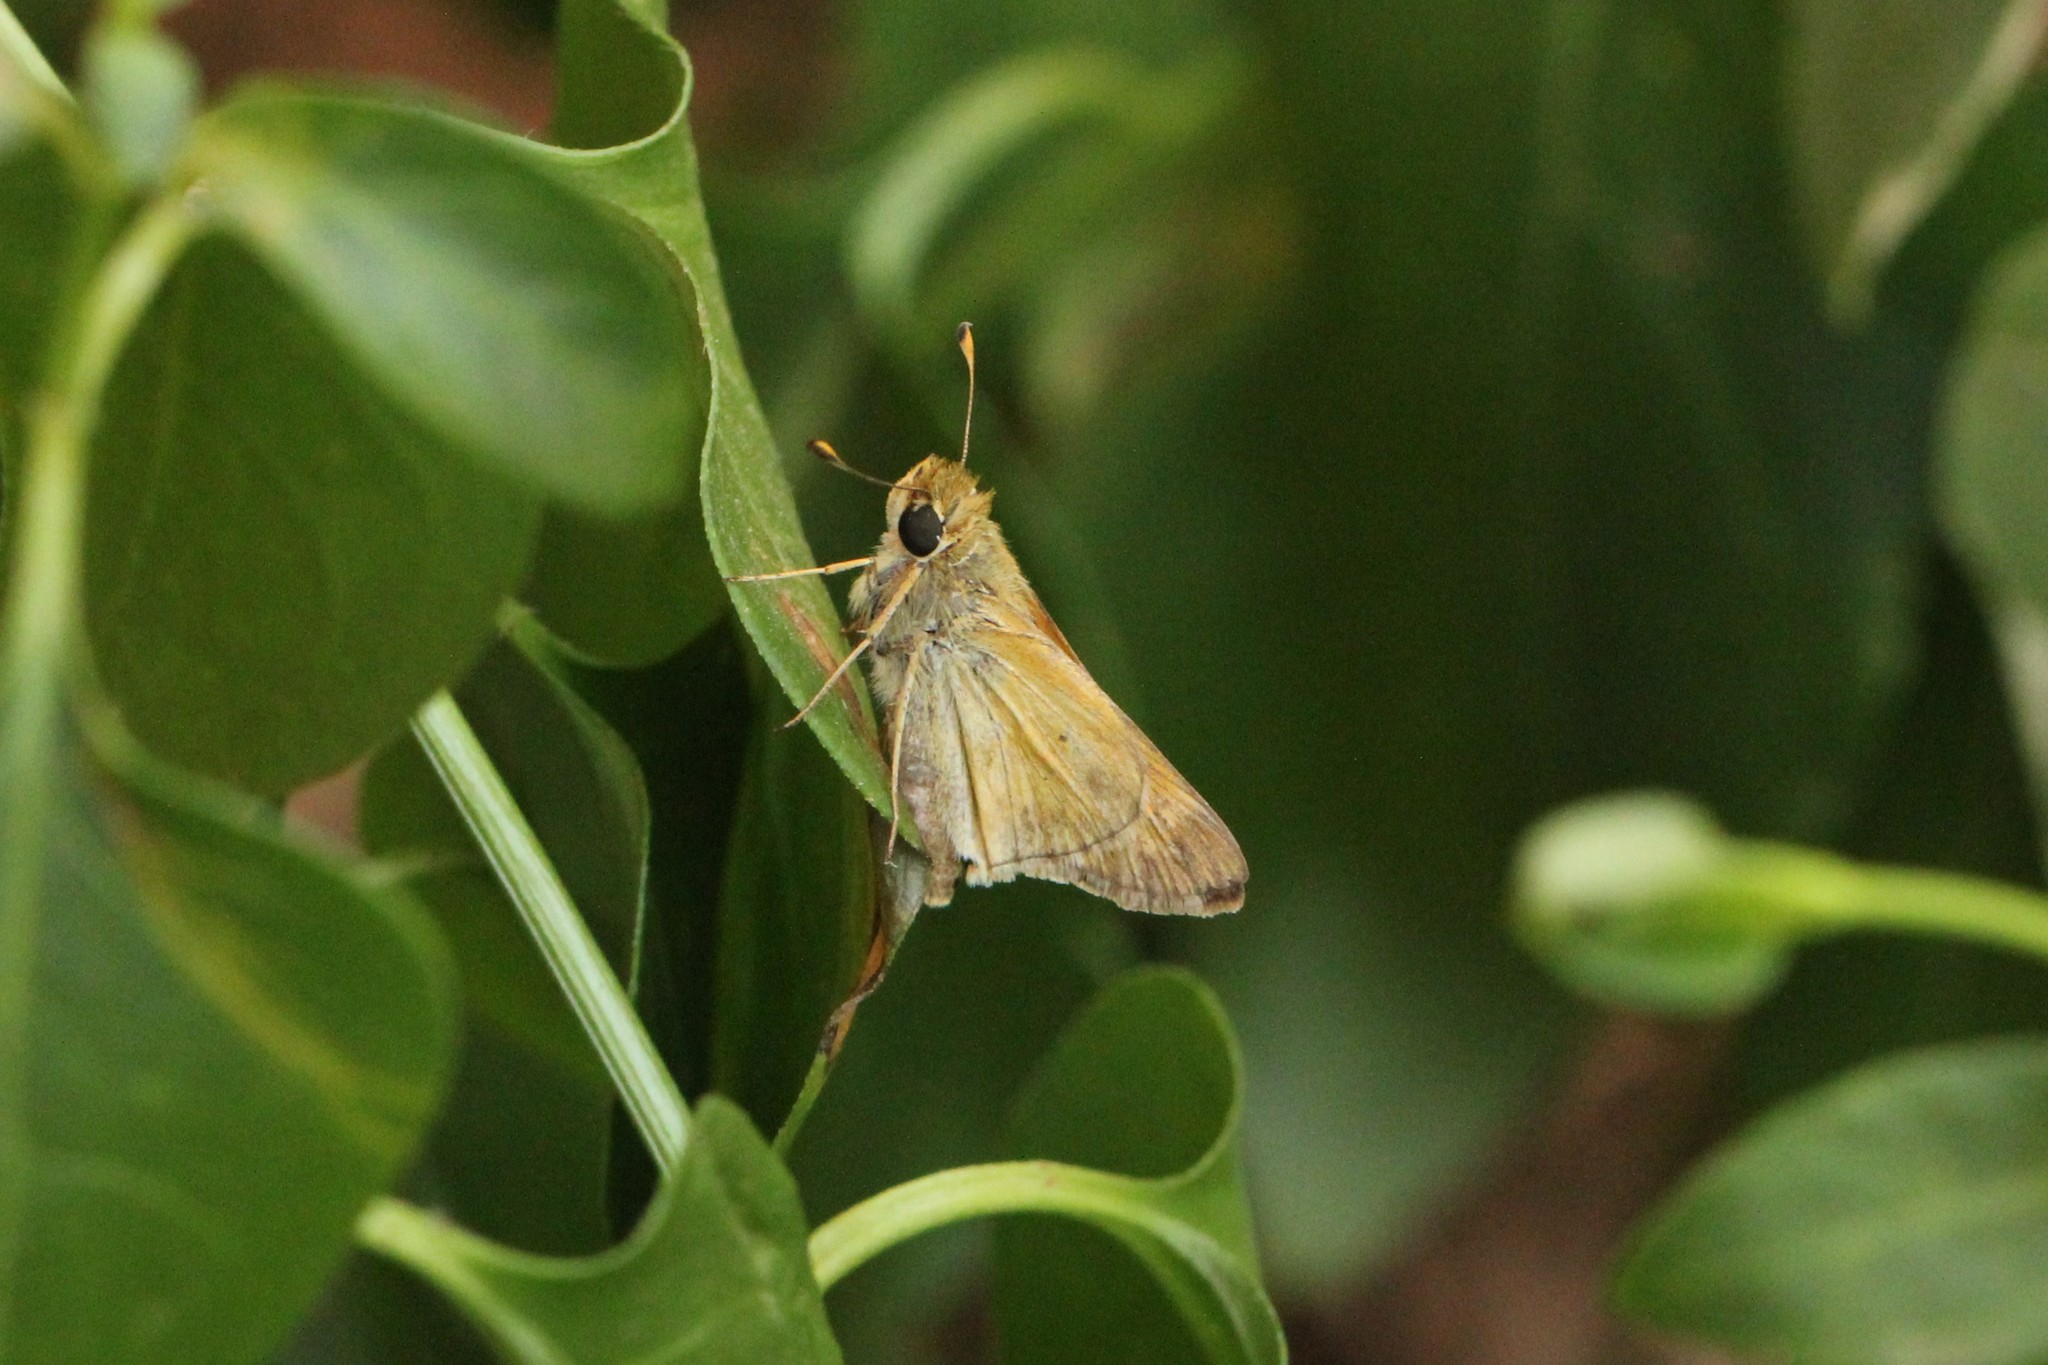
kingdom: Animalia
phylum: Arthropoda
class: Insecta
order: Lepidoptera
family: Hesperiidae
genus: Atalopedes
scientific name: Atalopedes
